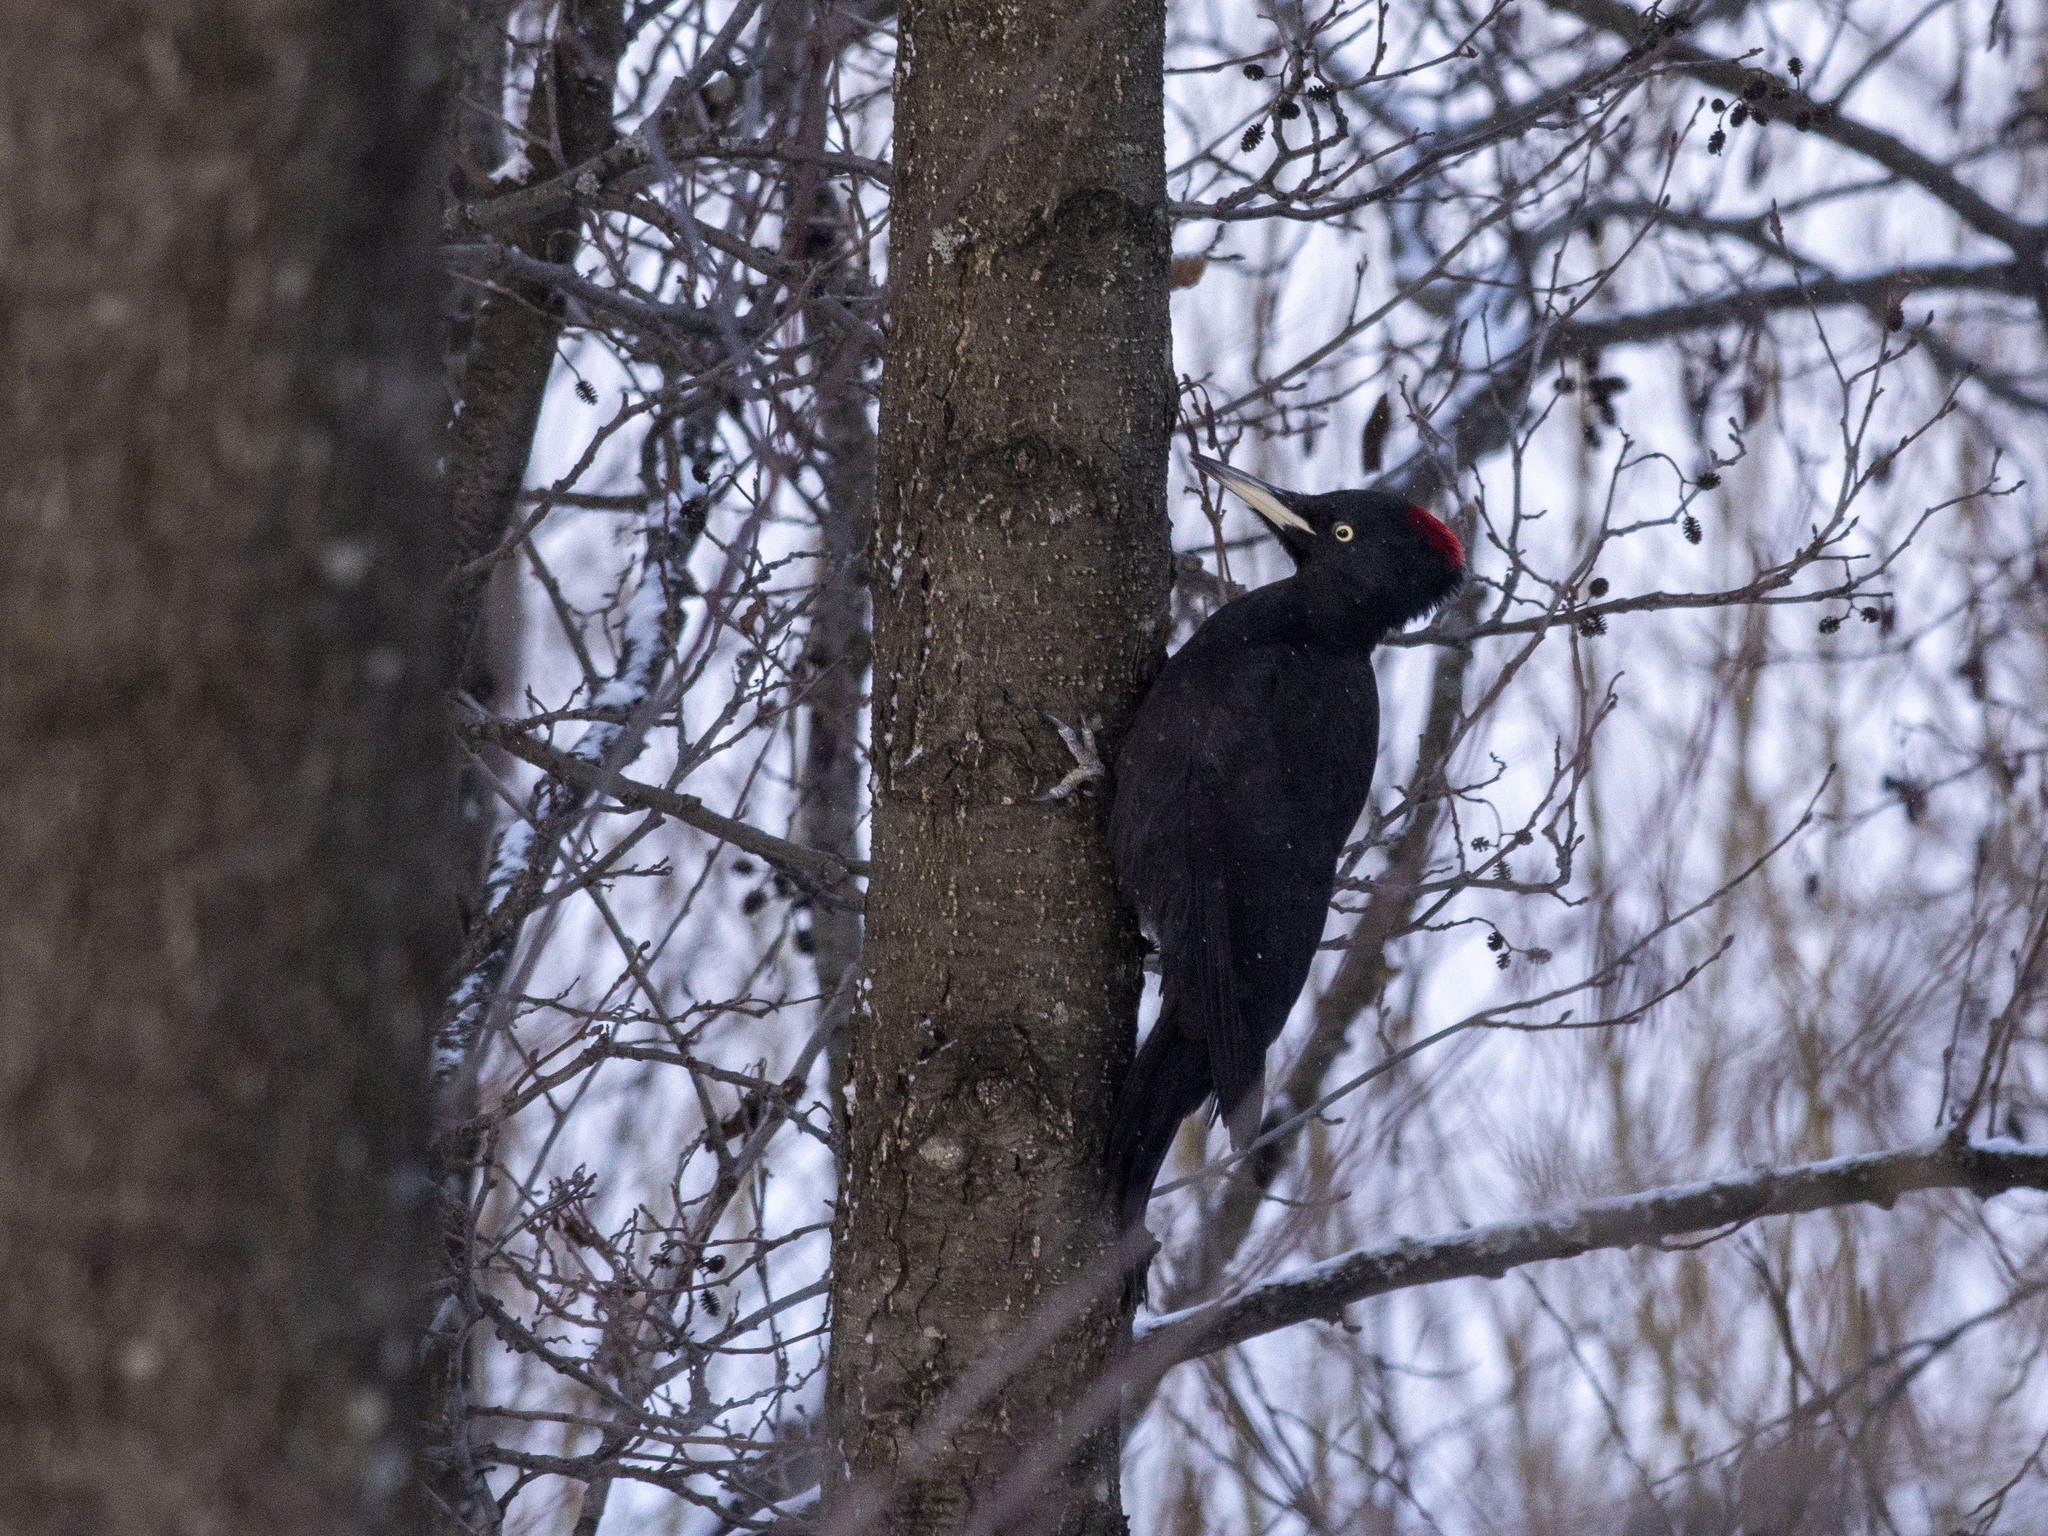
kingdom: Animalia
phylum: Chordata
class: Aves
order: Piciformes
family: Picidae
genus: Dryocopus
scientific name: Dryocopus martius
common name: Black woodpecker
